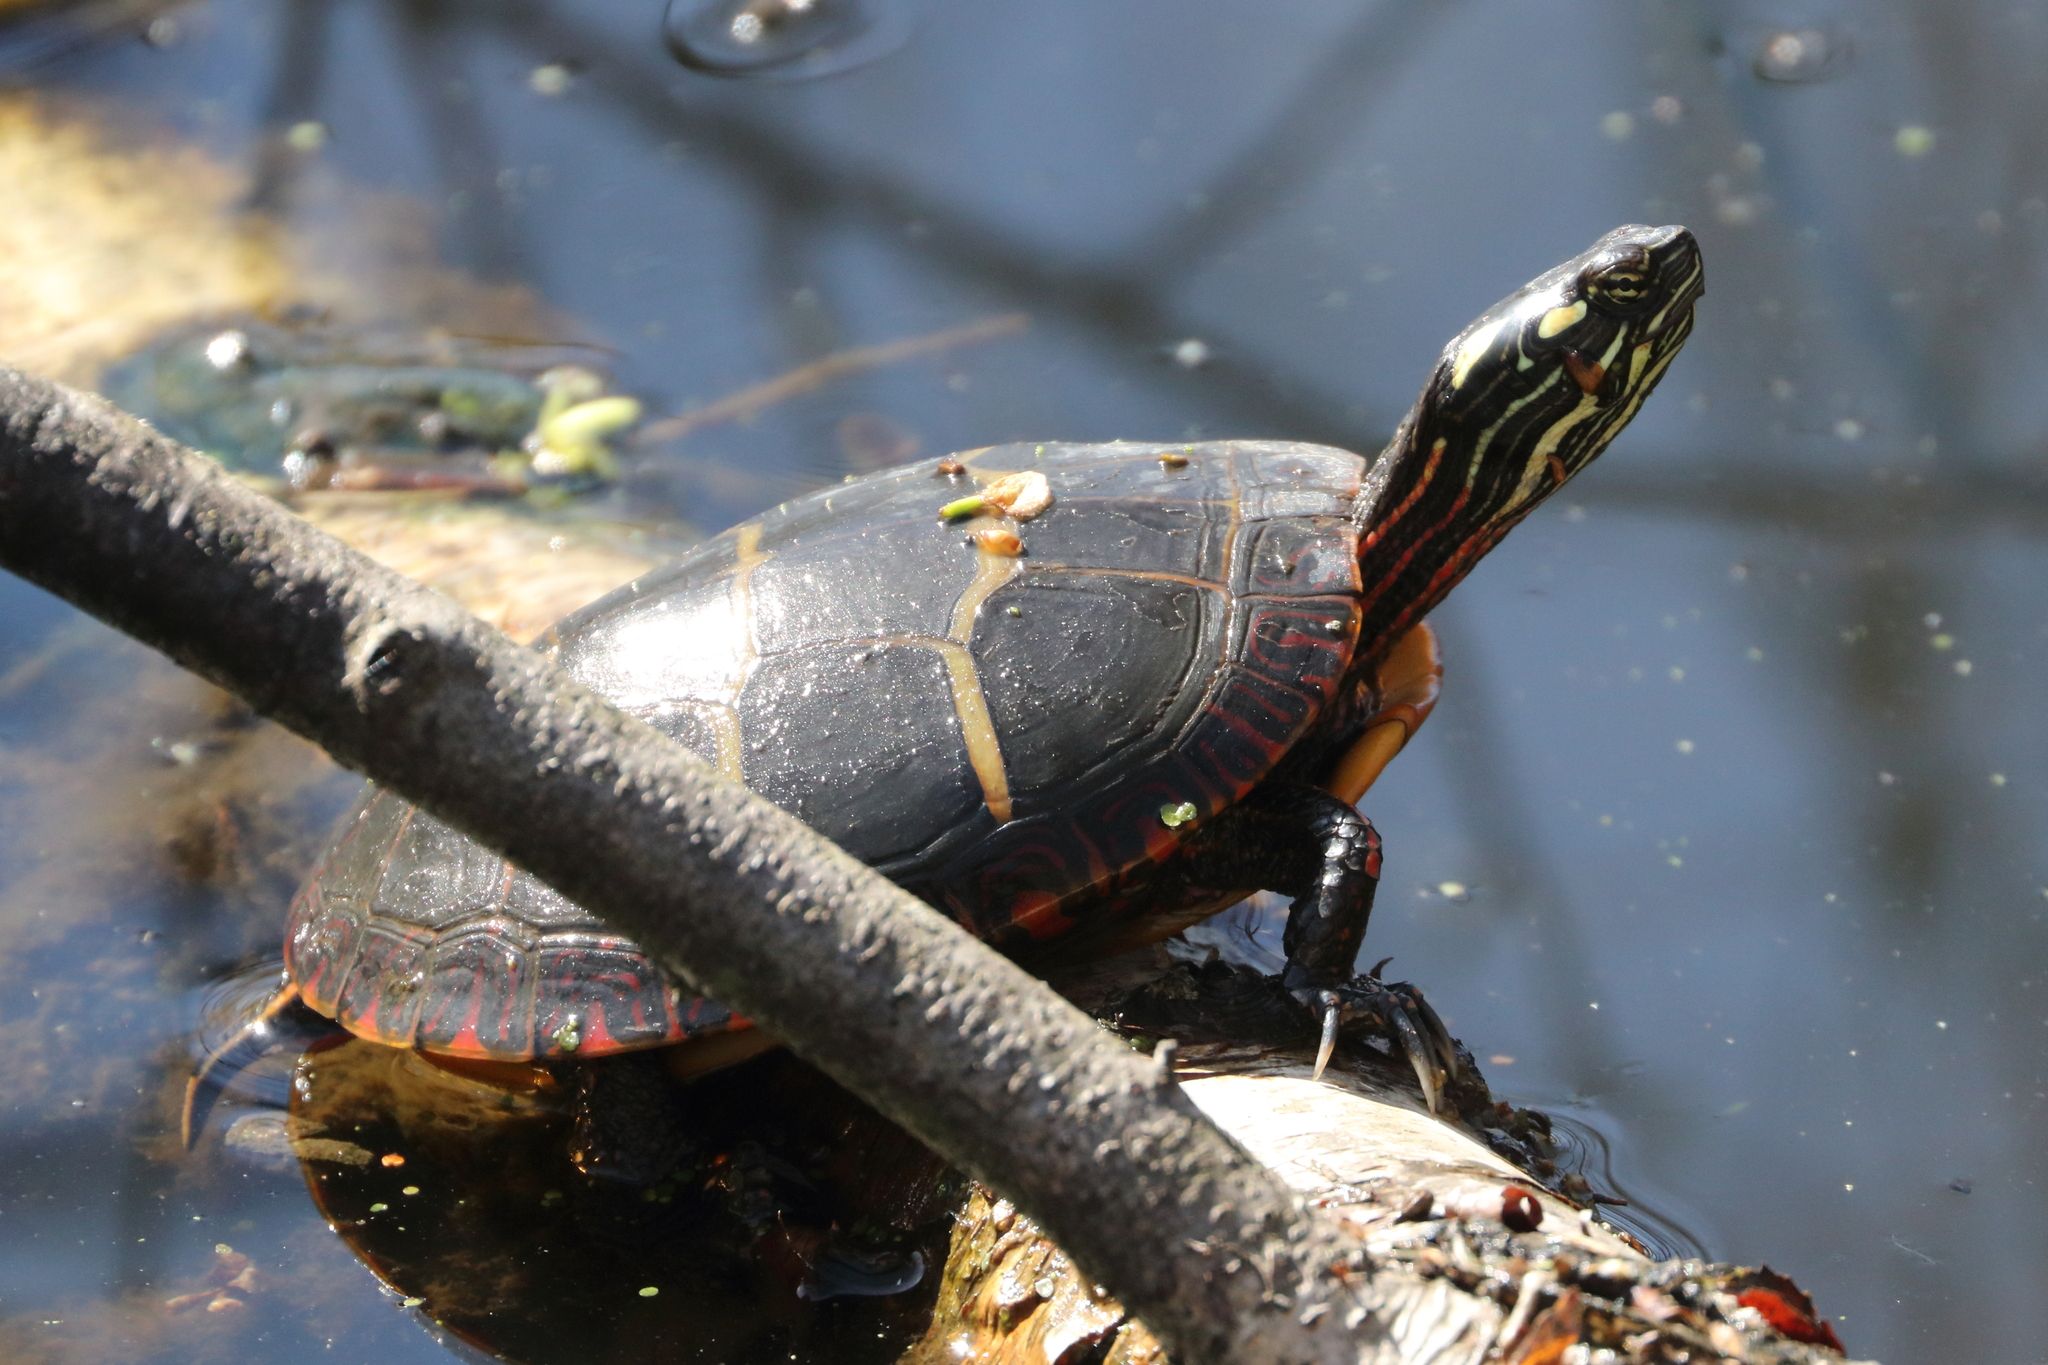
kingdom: Animalia
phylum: Chordata
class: Testudines
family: Emydidae
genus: Chrysemys
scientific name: Chrysemys picta
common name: Painted turtle
